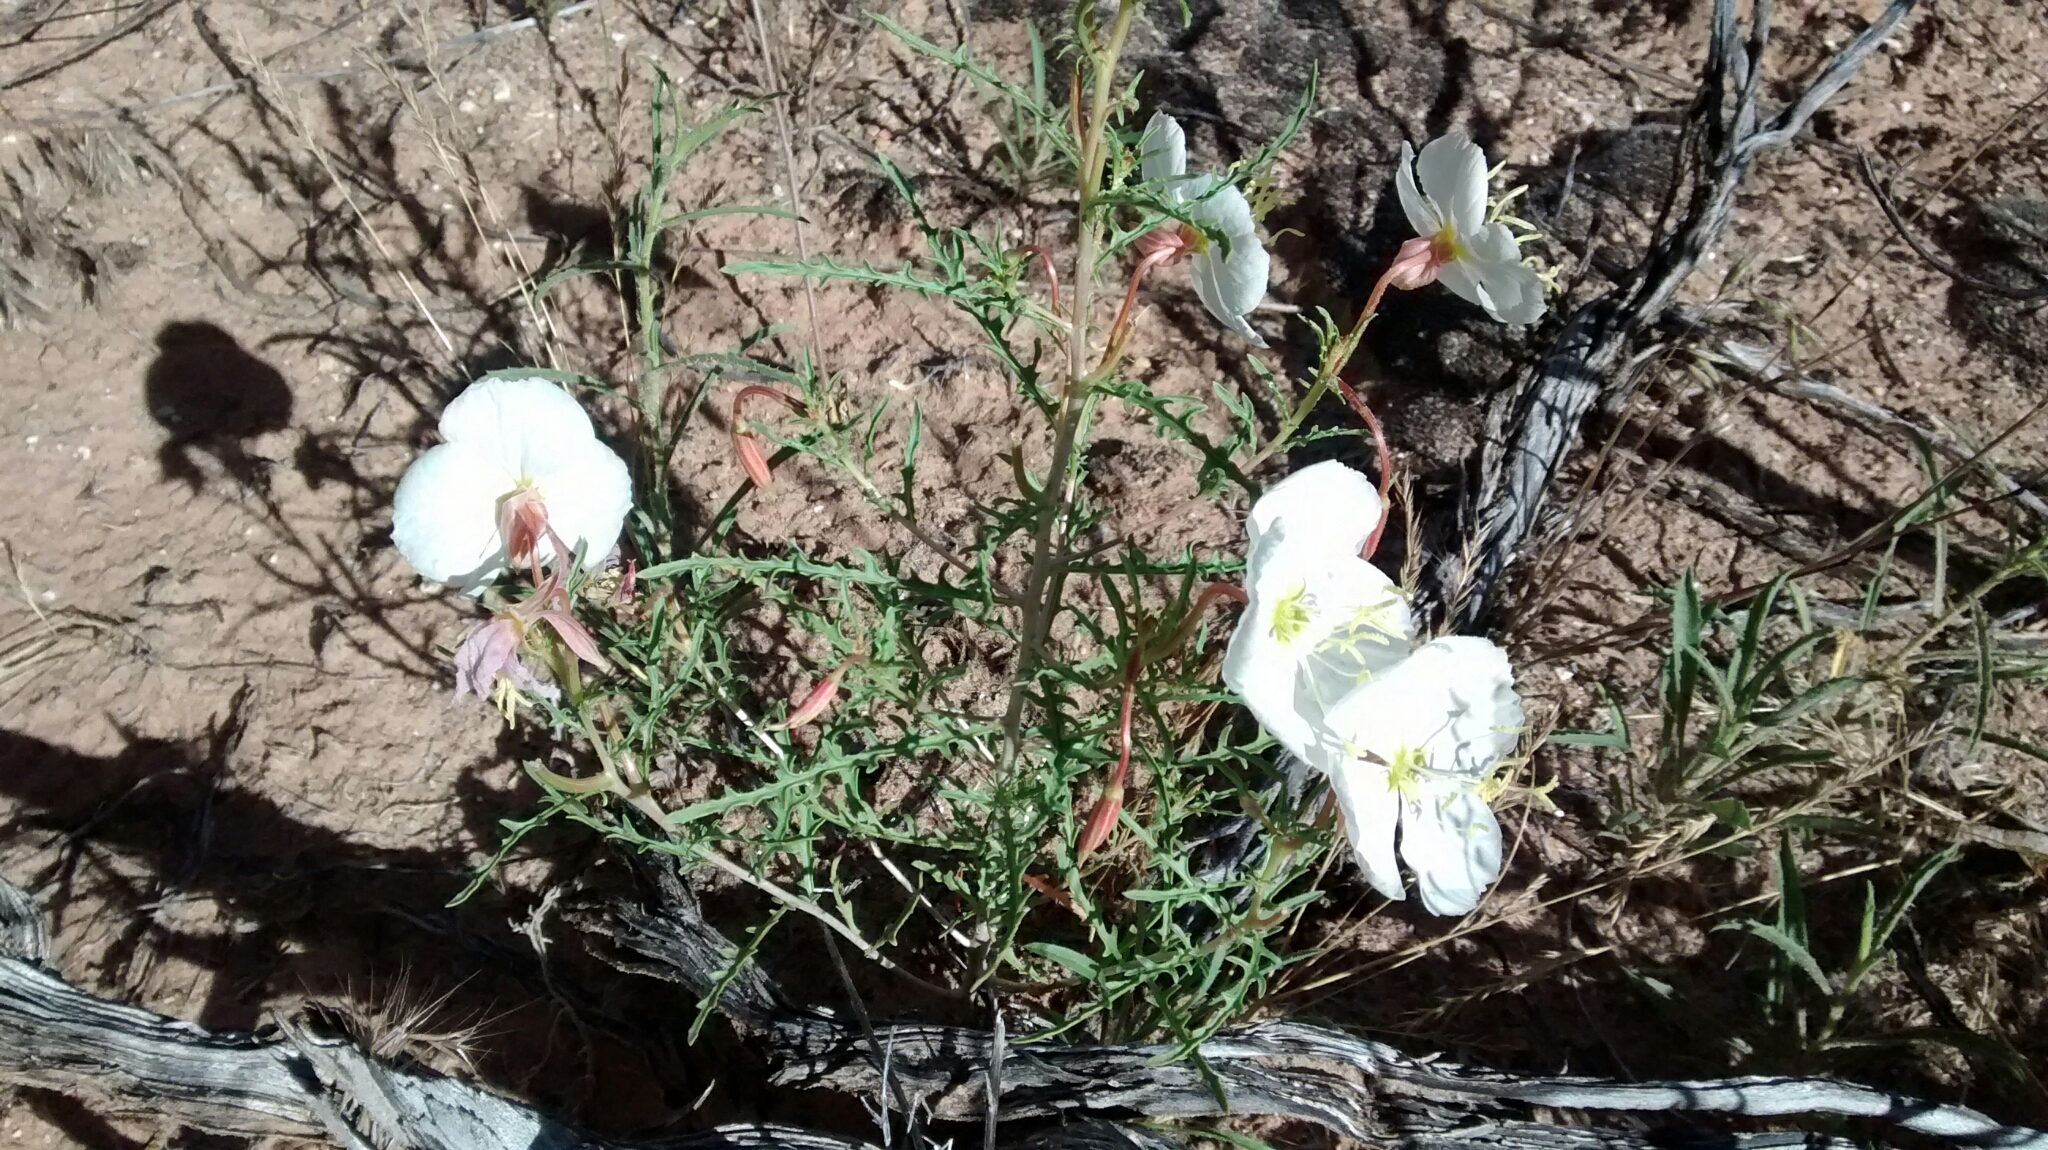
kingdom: Plantae
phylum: Tracheophyta
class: Magnoliopsida
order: Myrtales
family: Onagraceae
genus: Oenothera
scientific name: Oenothera pallida
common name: Pale evening-primrose
